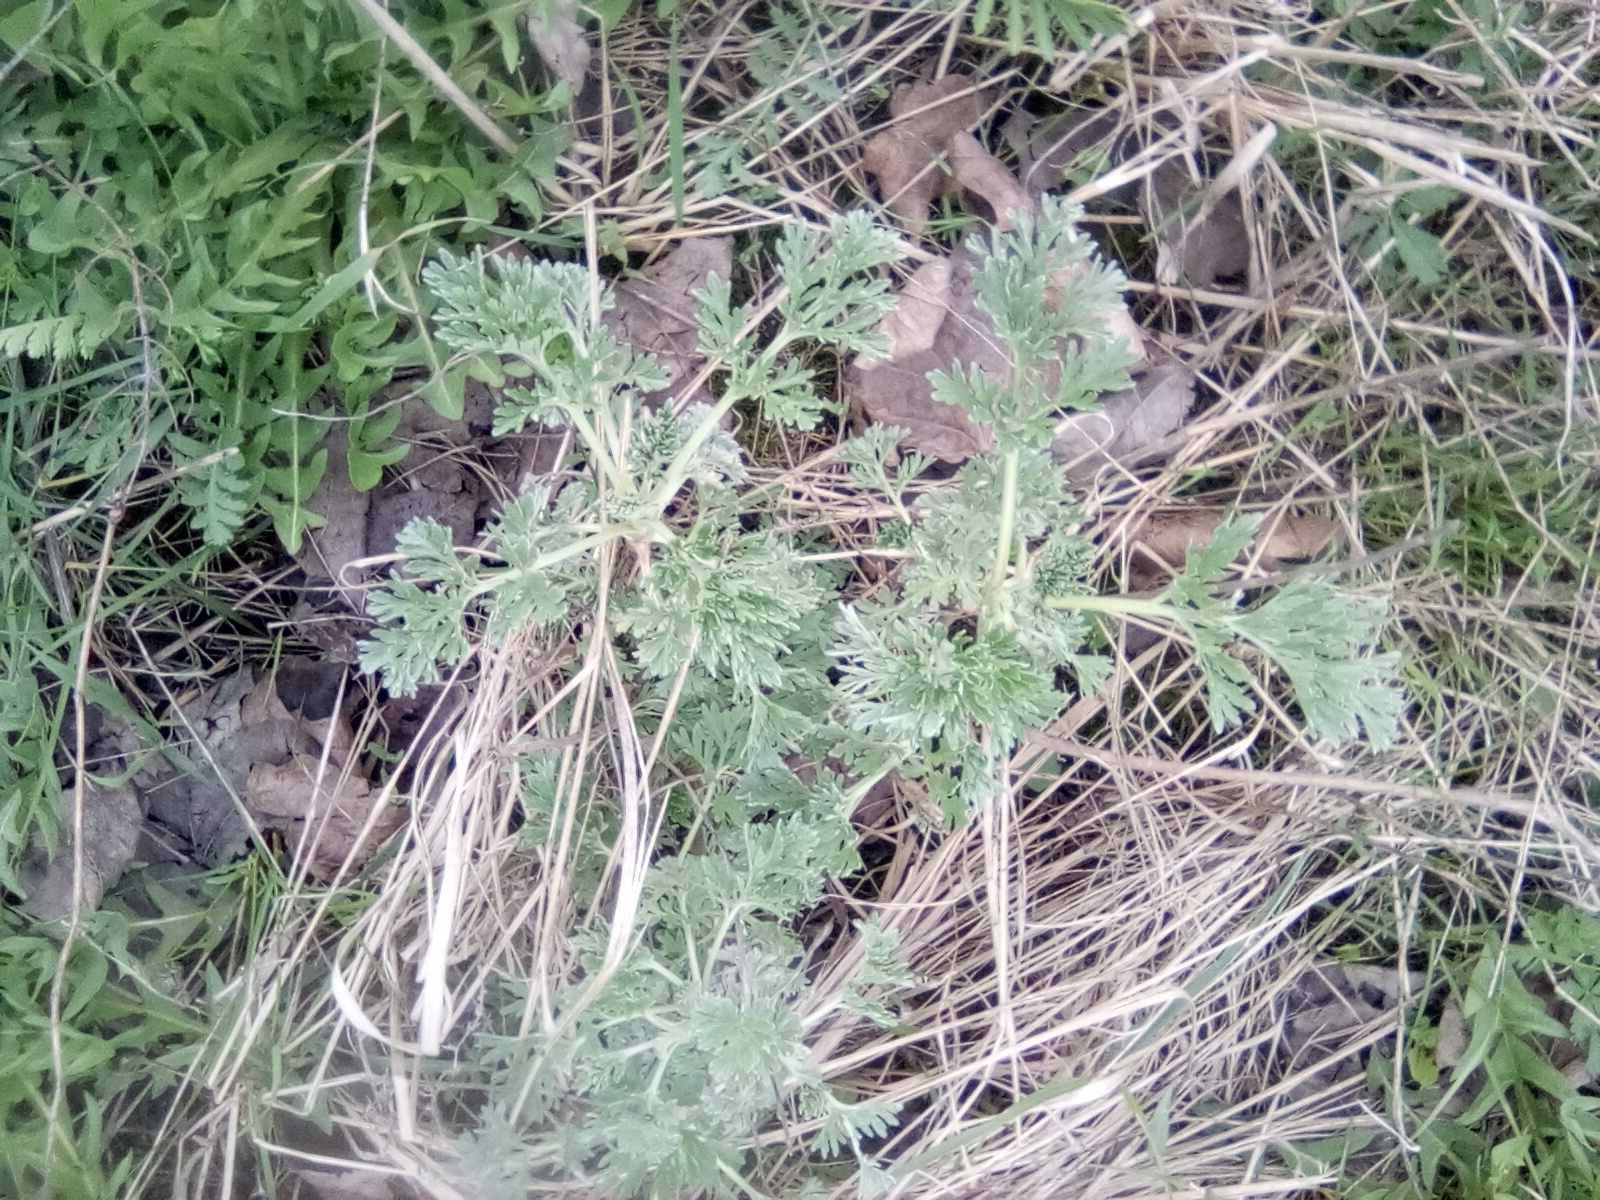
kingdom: Plantae
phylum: Tracheophyta
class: Magnoliopsida
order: Asterales
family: Asteraceae
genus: Artemisia
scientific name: Artemisia absinthium
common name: Wormwood
